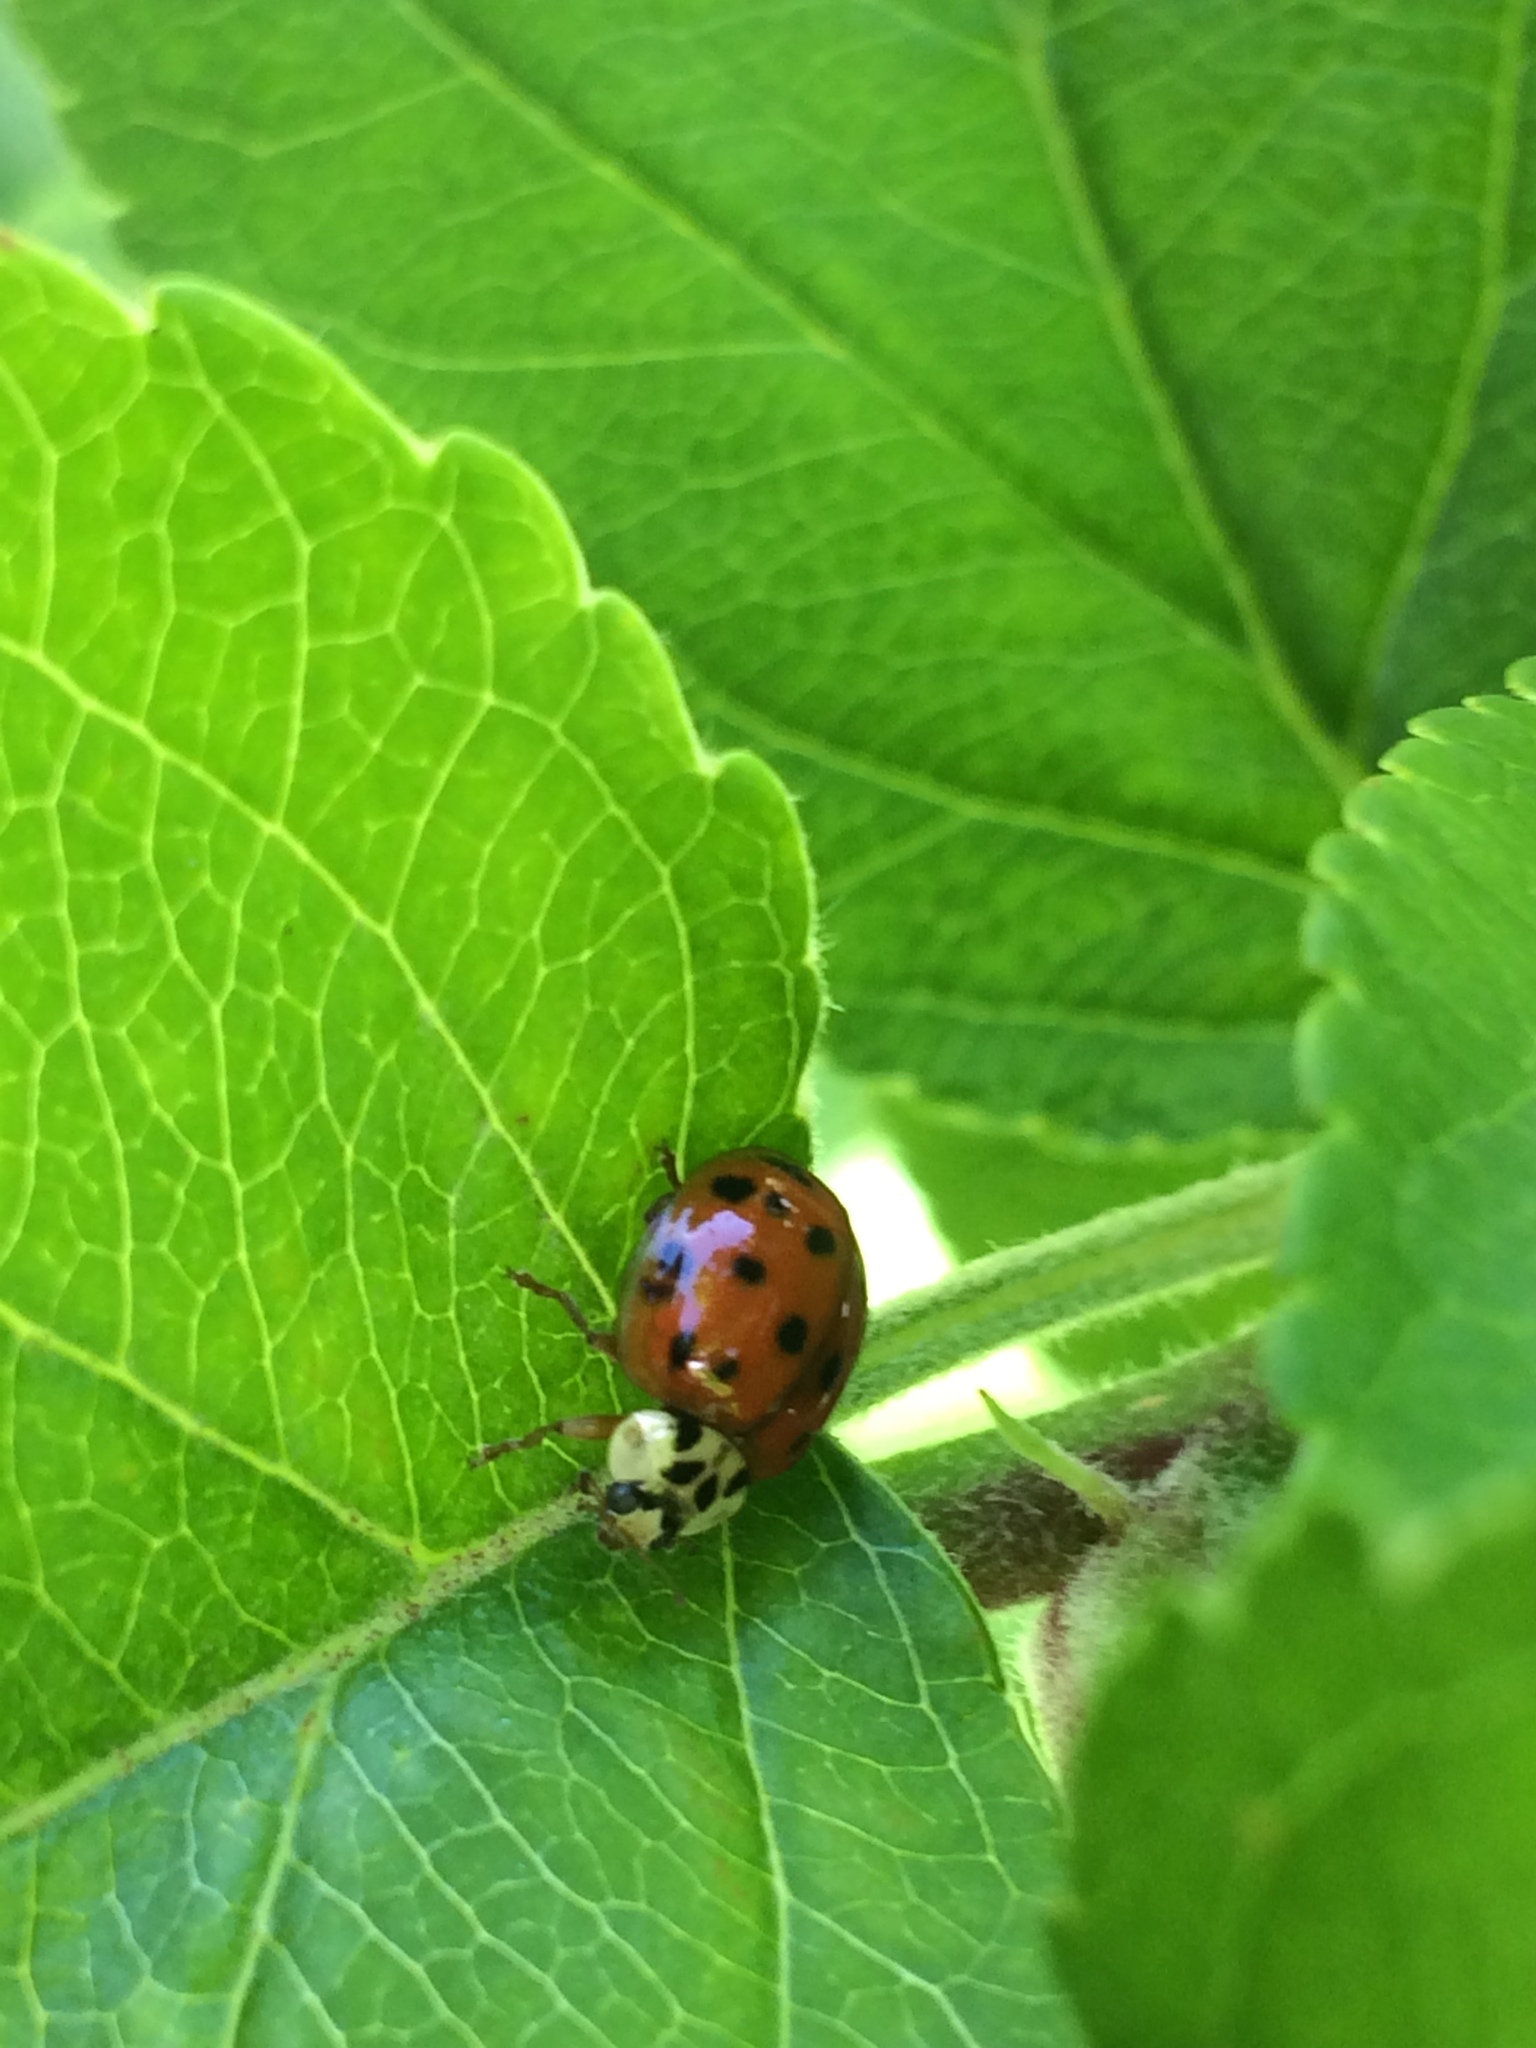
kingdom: Animalia
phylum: Arthropoda
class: Insecta
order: Coleoptera
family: Coccinellidae
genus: Harmonia
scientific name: Harmonia axyridis
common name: Harlequin ladybird
